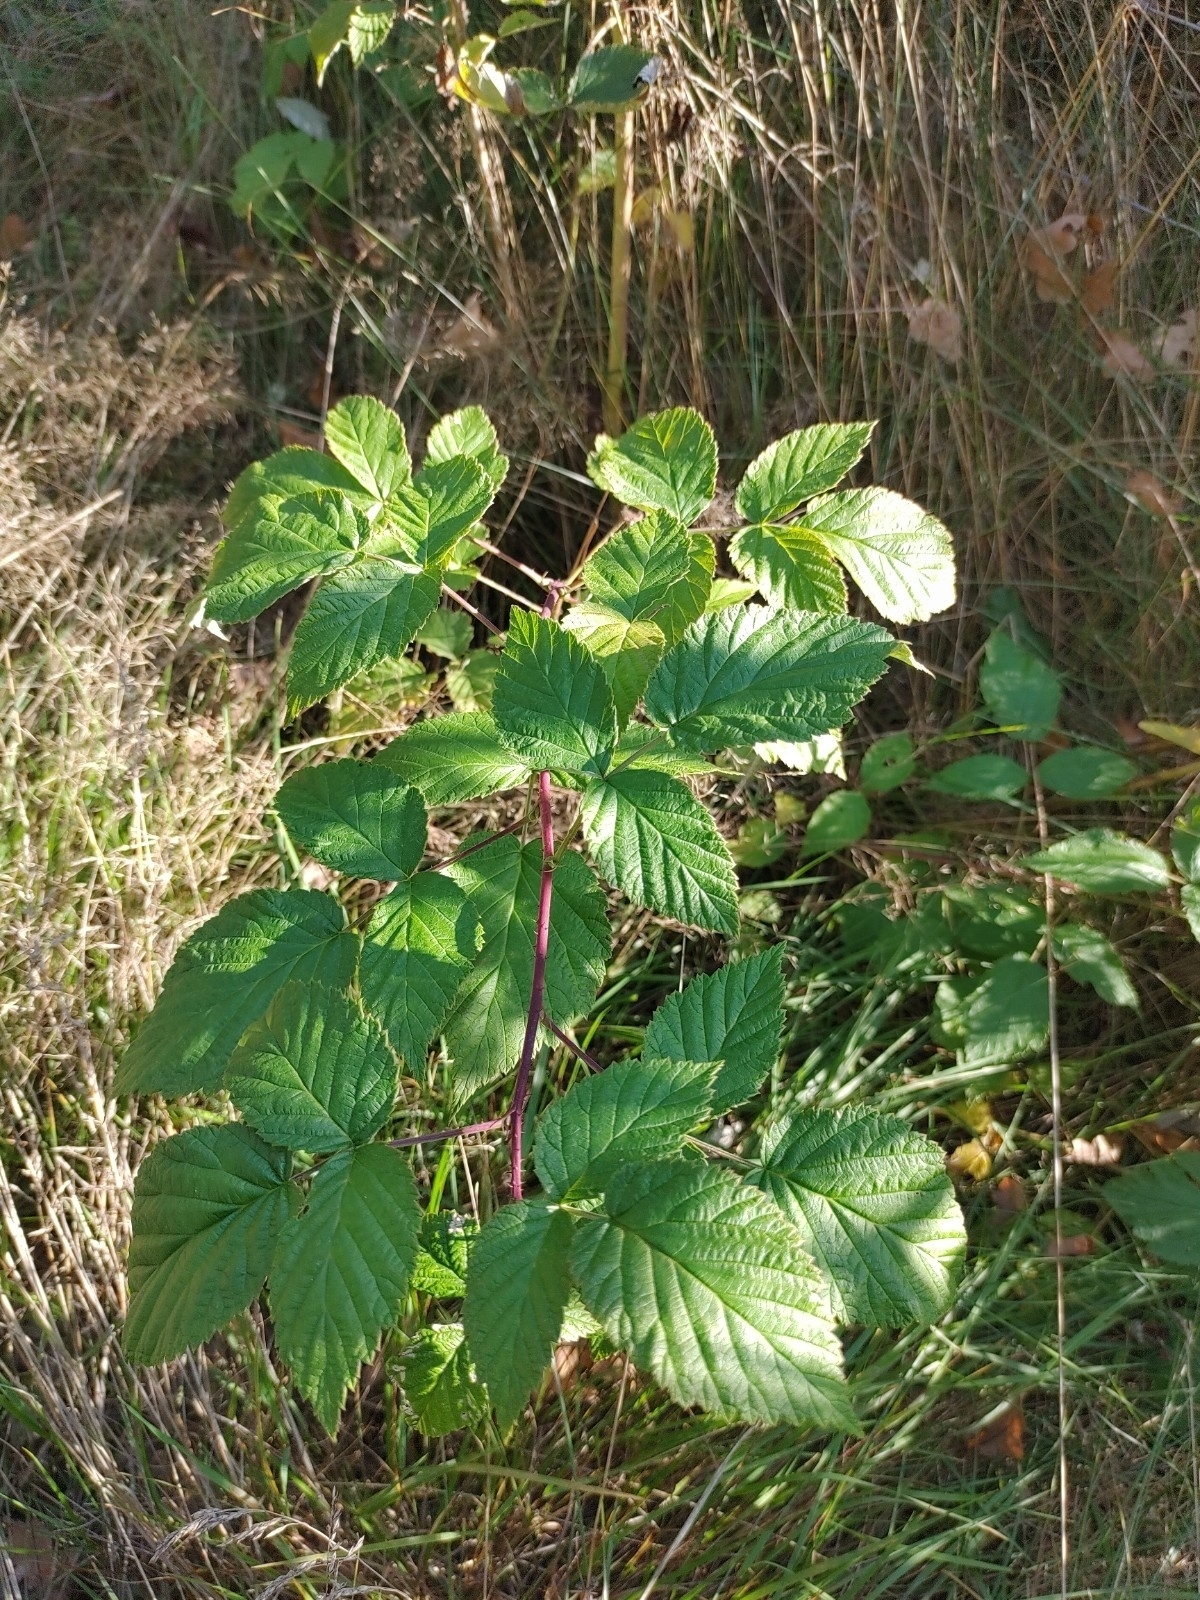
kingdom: Plantae
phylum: Tracheophyta
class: Magnoliopsida
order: Rosales
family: Rosaceae
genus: Rubus
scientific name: Rubus idaeus
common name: Raspberry
